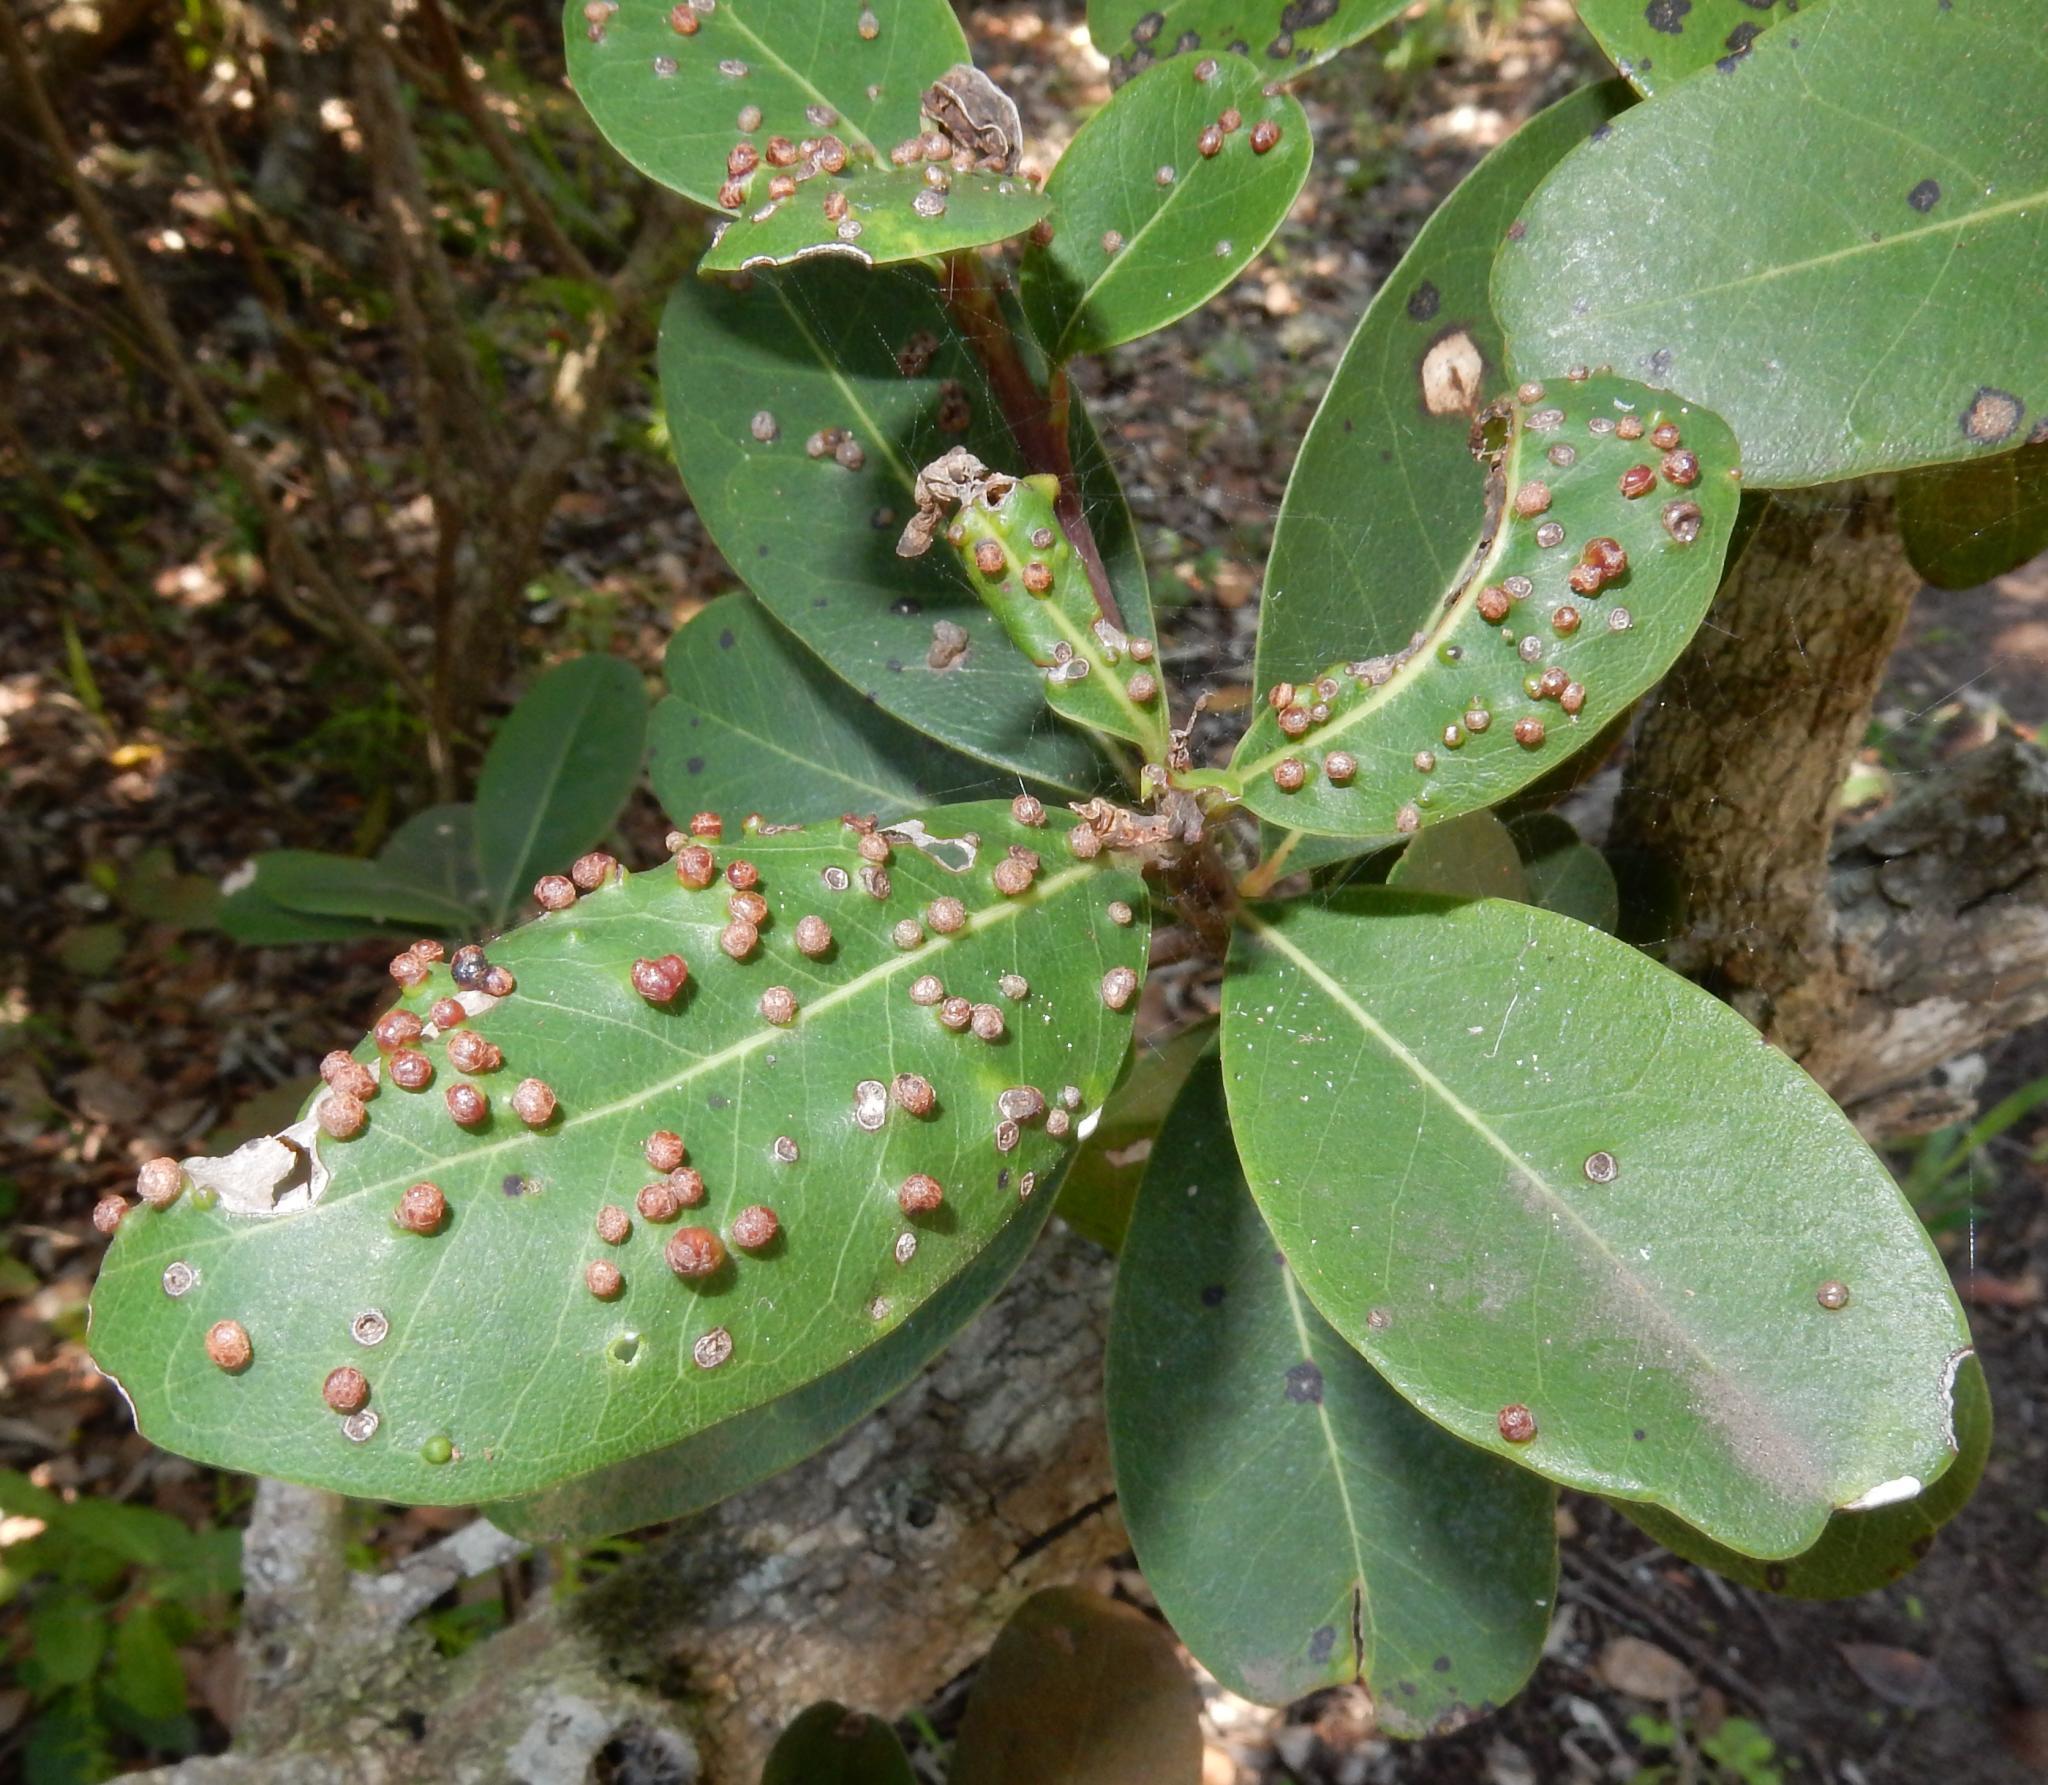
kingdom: Plantae
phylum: Tracheophyta
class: Magnoliopsida
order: Ericales
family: Sapotaceae
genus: Sideroxylon
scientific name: Sideroxylon inerme
